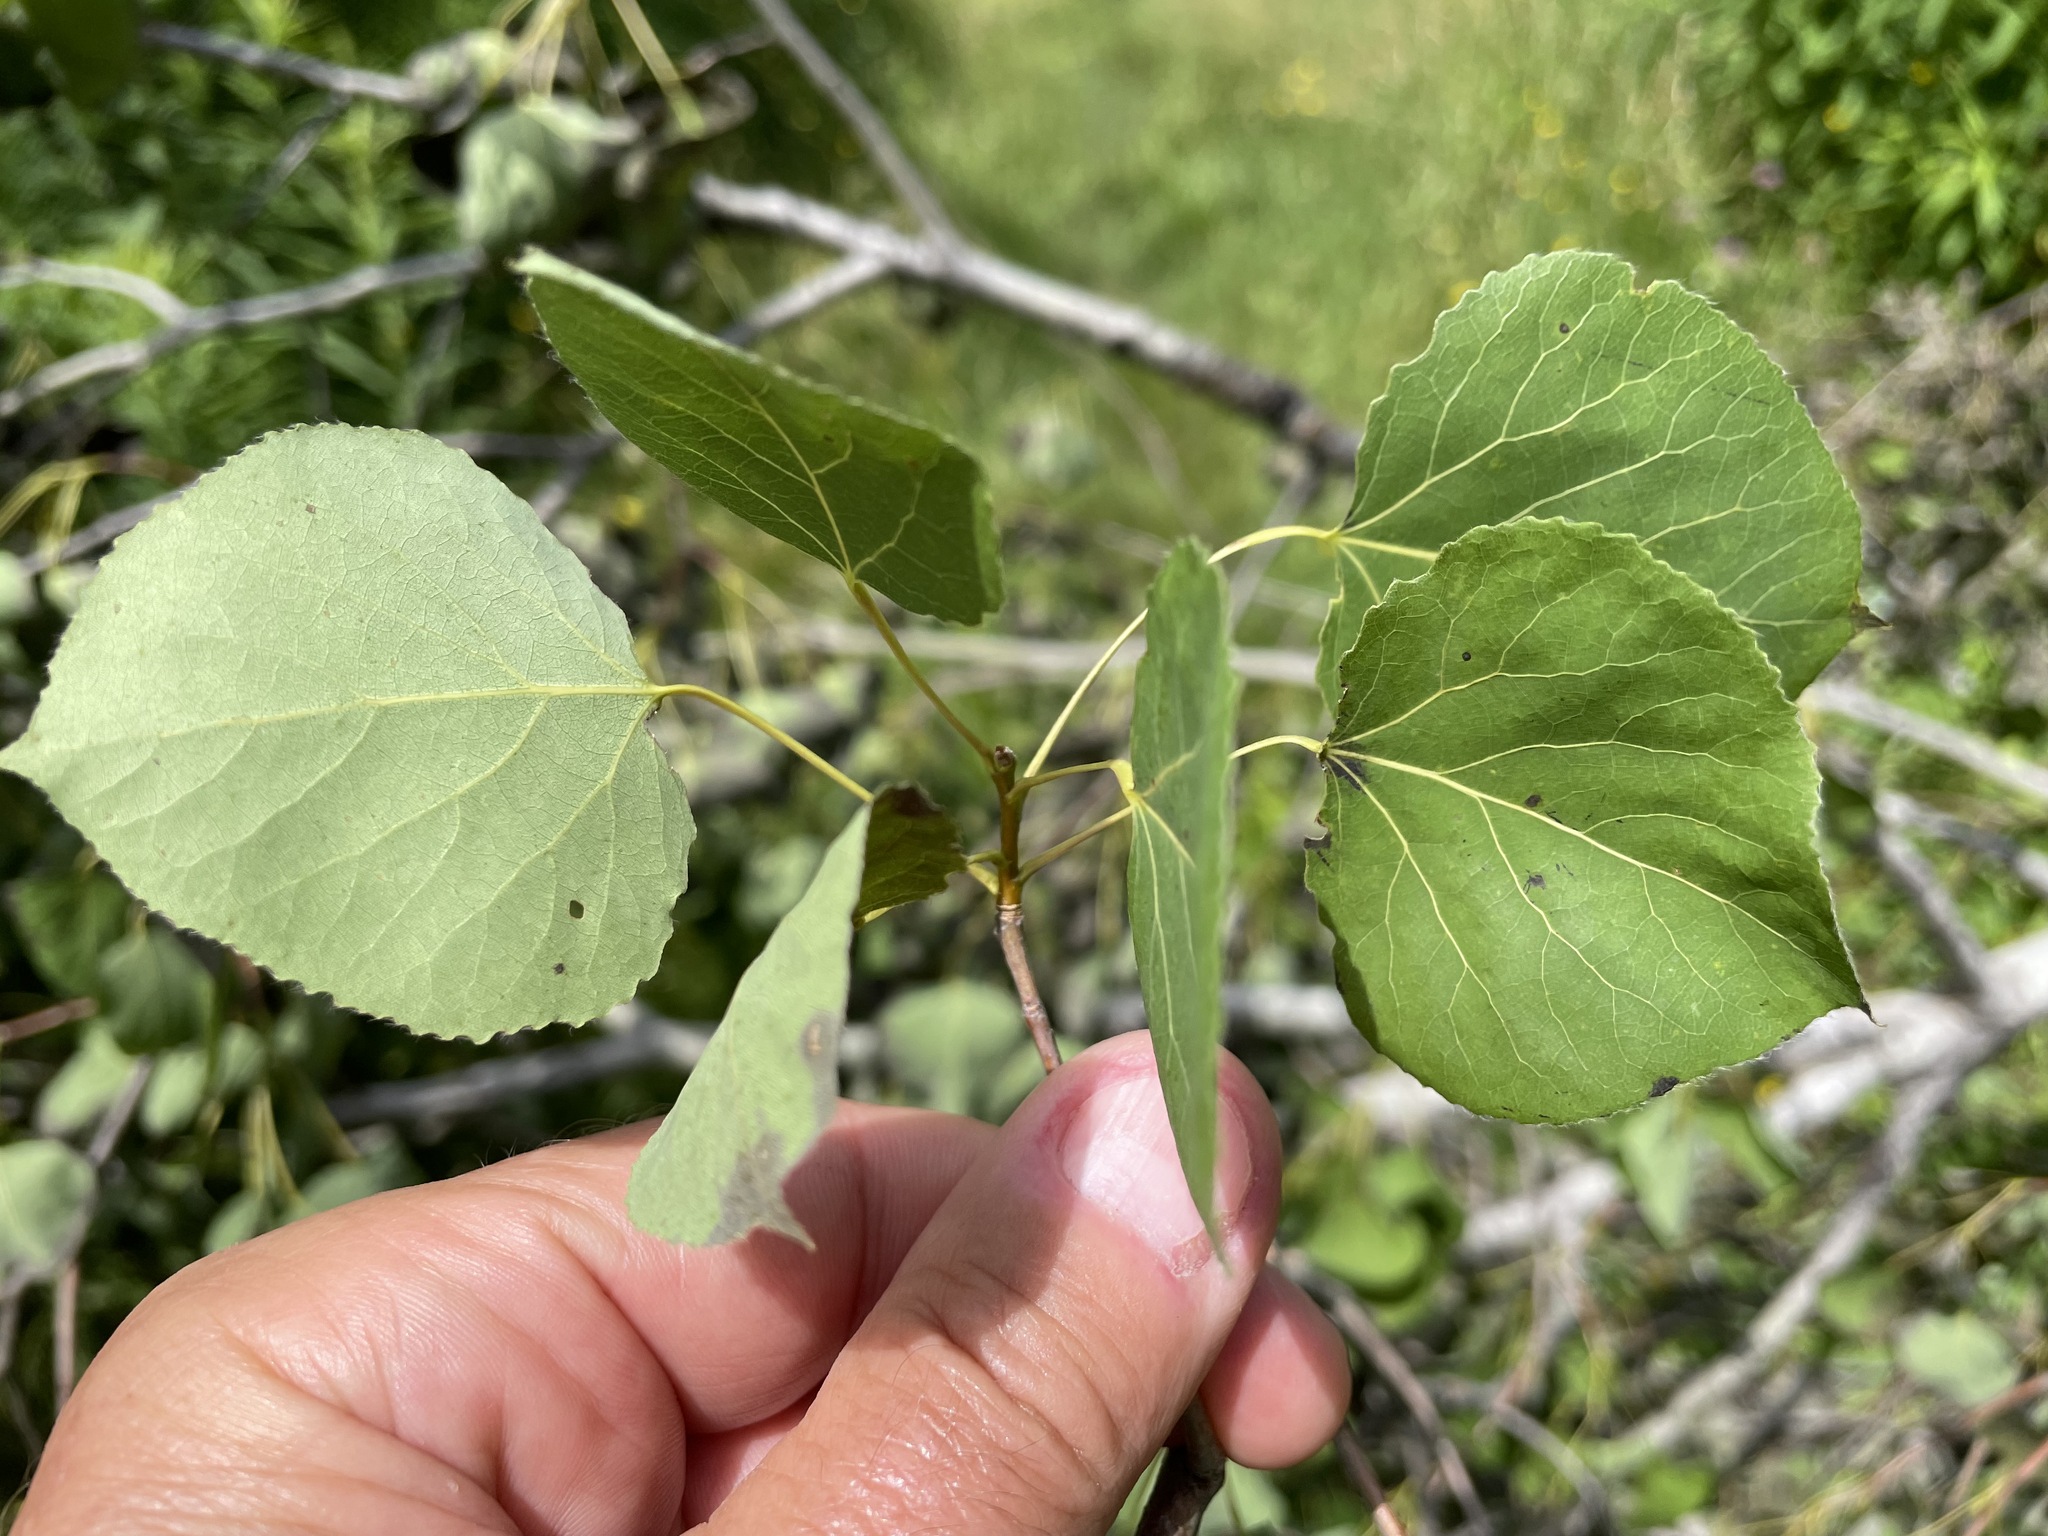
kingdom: Plantae
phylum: Tracheophyta
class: Magnoliopsida
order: Malpighiales
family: Salicaceae
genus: Populus
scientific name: Populus tremuloides
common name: Quaking aspen
